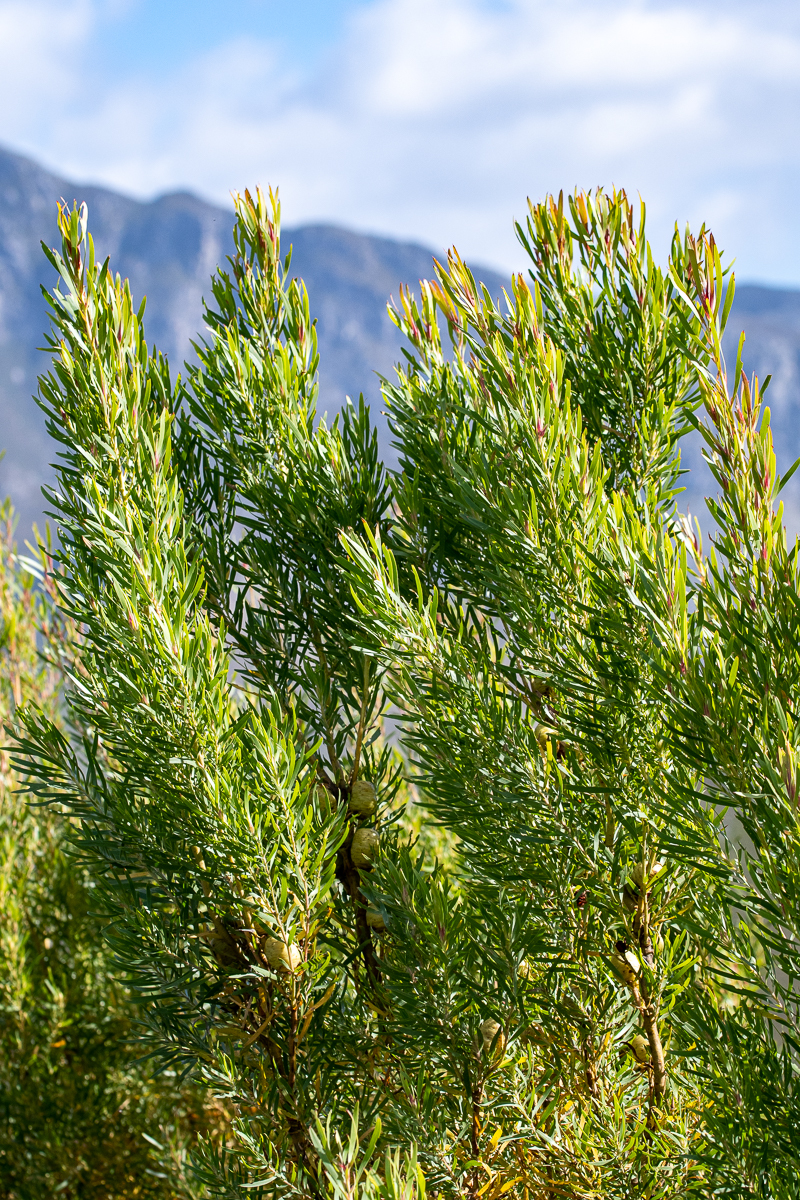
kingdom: Plantae
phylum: Tracheophyta
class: Magnoliopsida
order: Proteales
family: Proteaceae
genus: Leucadendron
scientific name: Leucadendron salicifolium
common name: Common stream conebush
